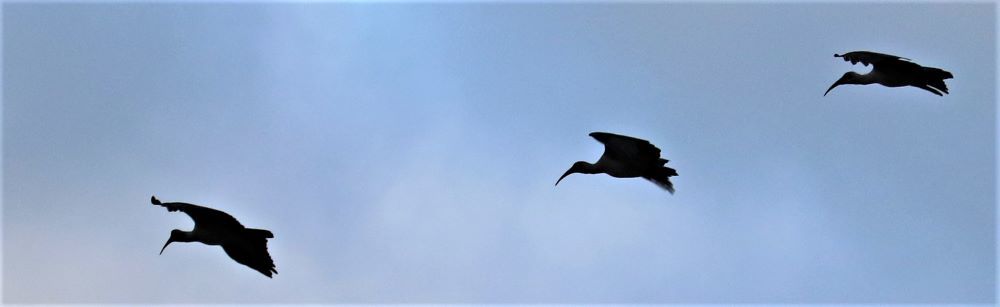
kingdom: Animalia
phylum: Chordata
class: Aves
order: Pelecaniformes
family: Threskiornithidae
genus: Bostrychia
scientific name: Bostrychia hagedash
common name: Hadada ibis
